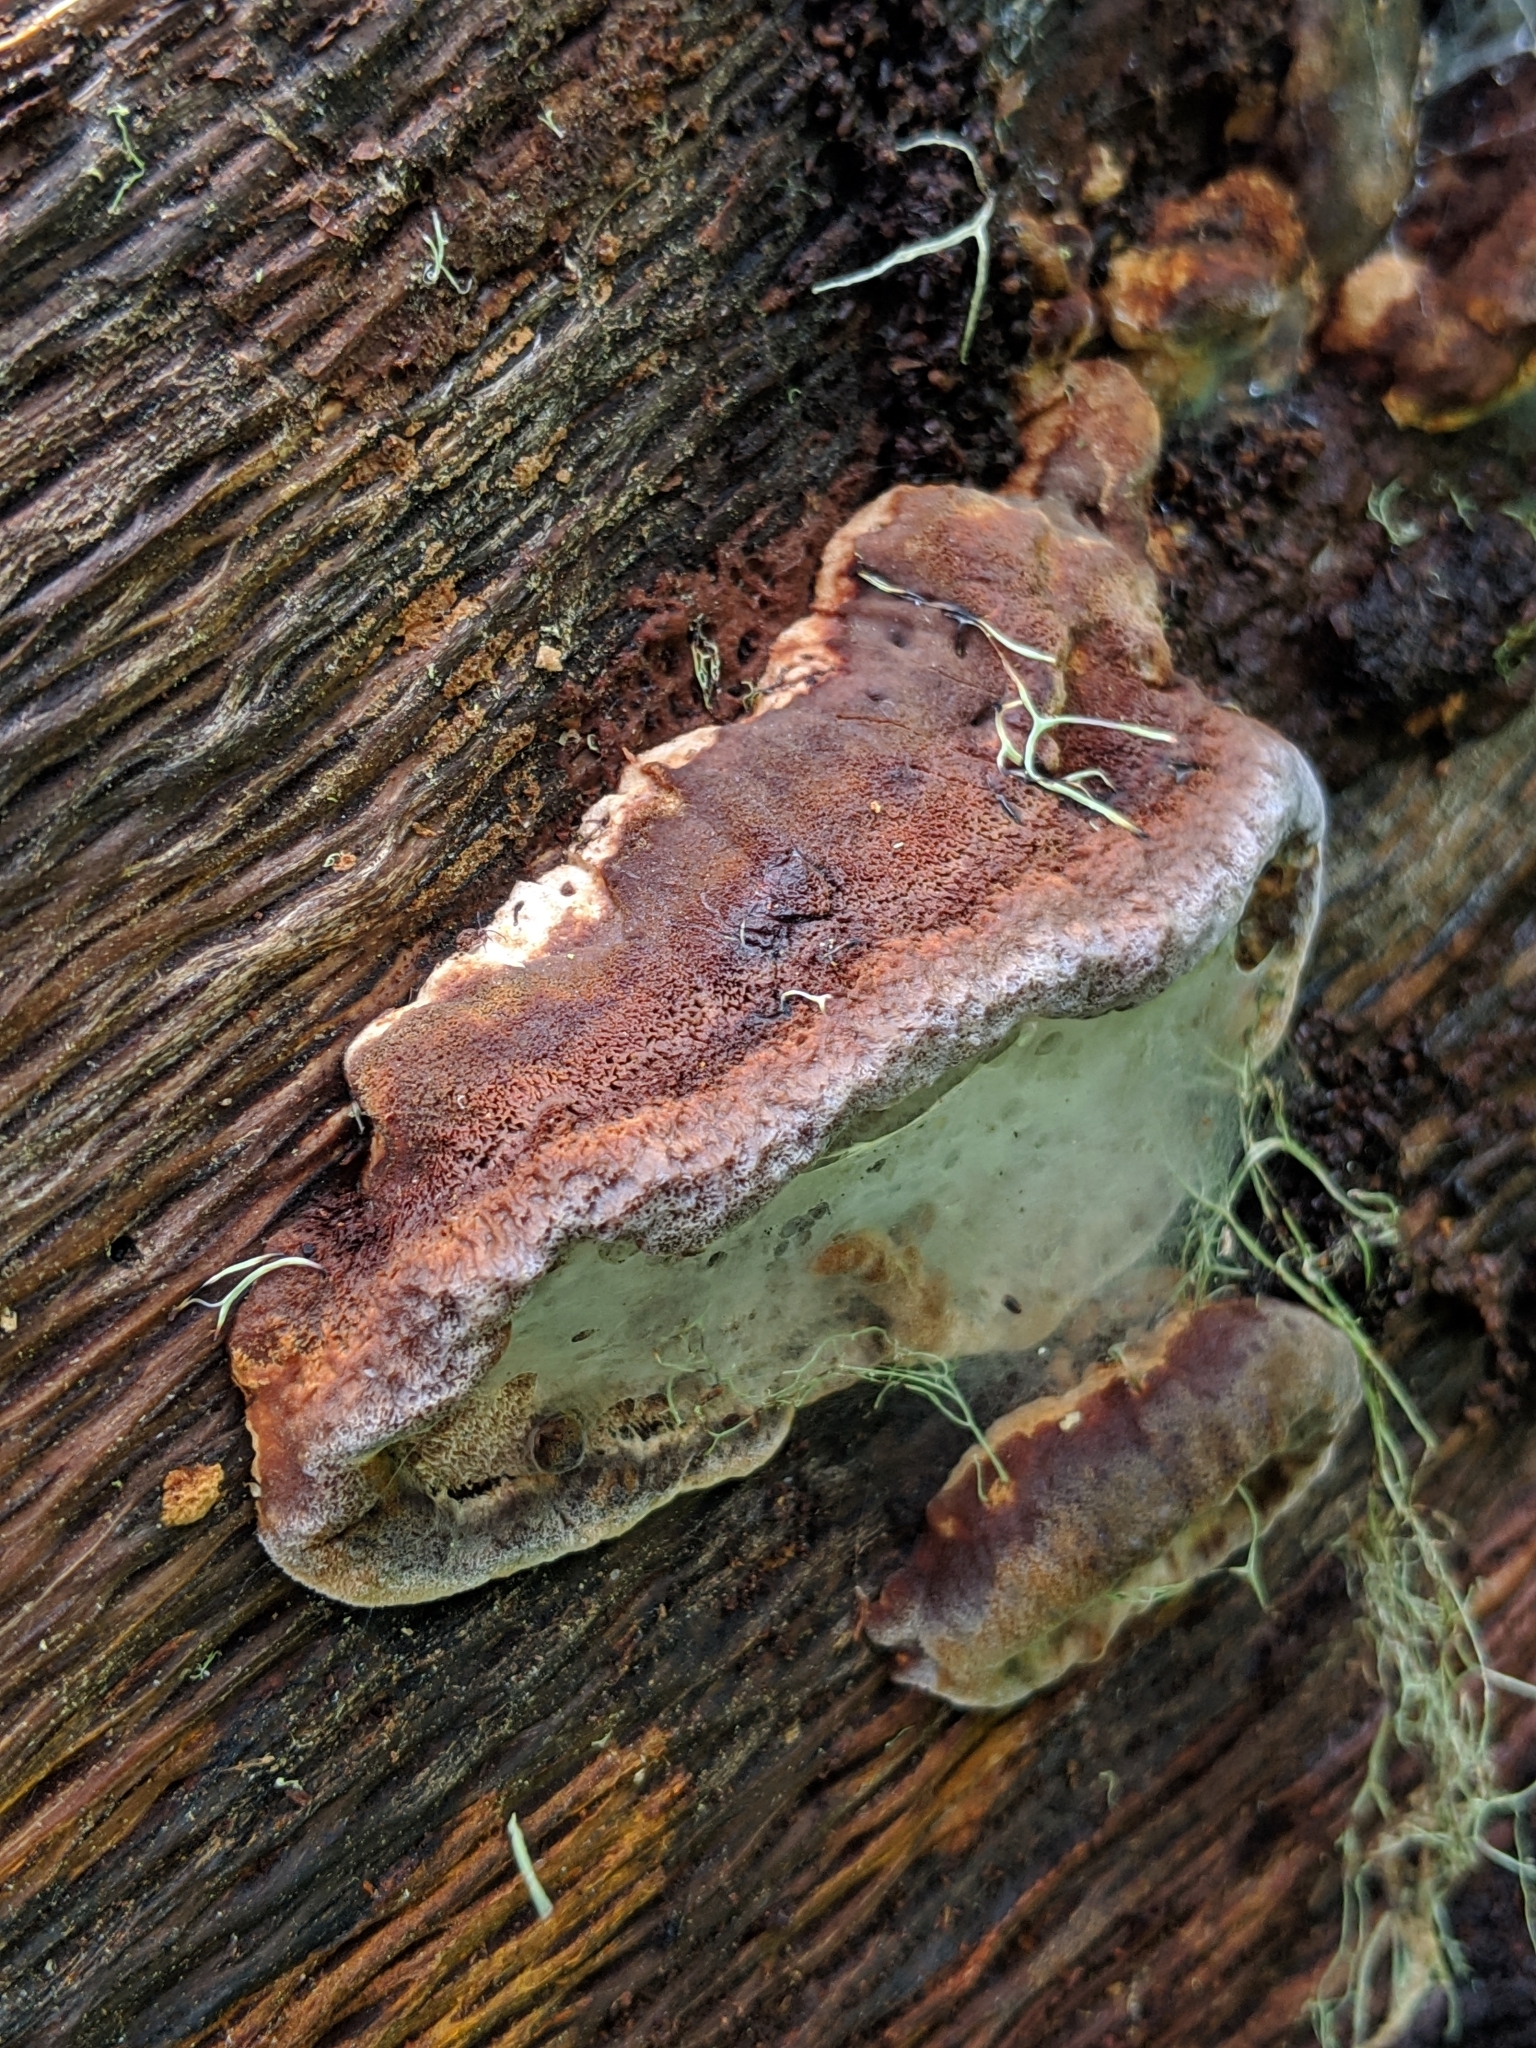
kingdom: Fungi
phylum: Basidiomycota
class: Agaricomycetes
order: Hymenochaetales
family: Hymenochaetaceae
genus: Phellinus
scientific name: Phellinus gilvus
